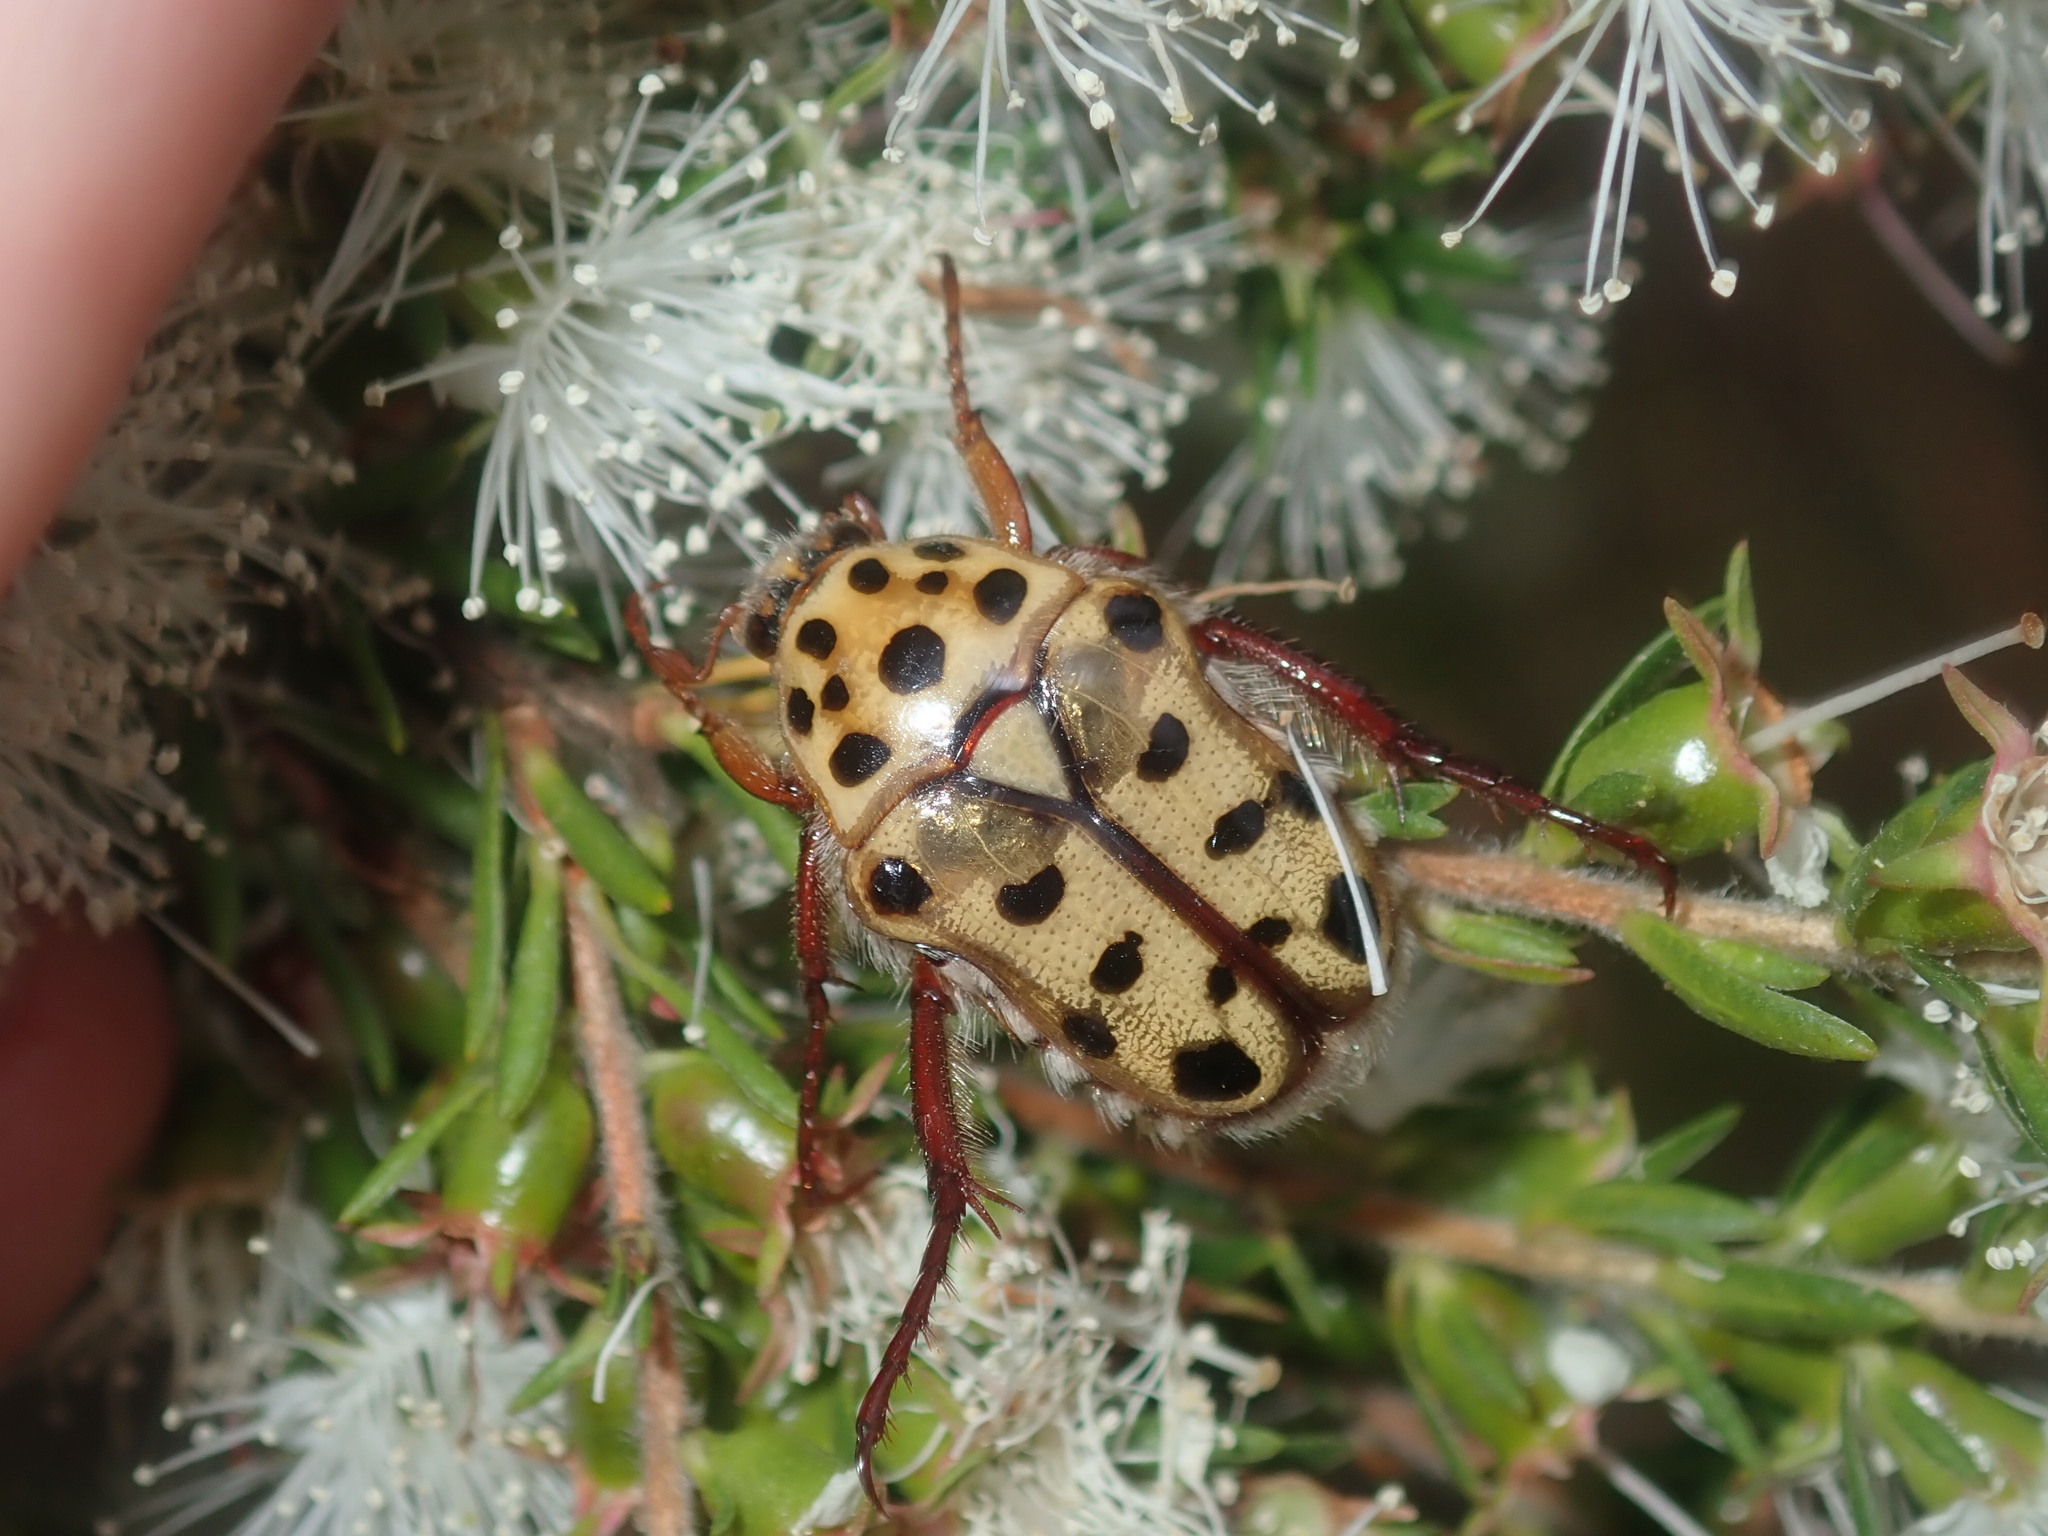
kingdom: Animalia
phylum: Arthropoda
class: Insecta
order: Coleoptera
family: Scarabaeidae
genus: Neorrhina
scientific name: Neorrhina punctatum
